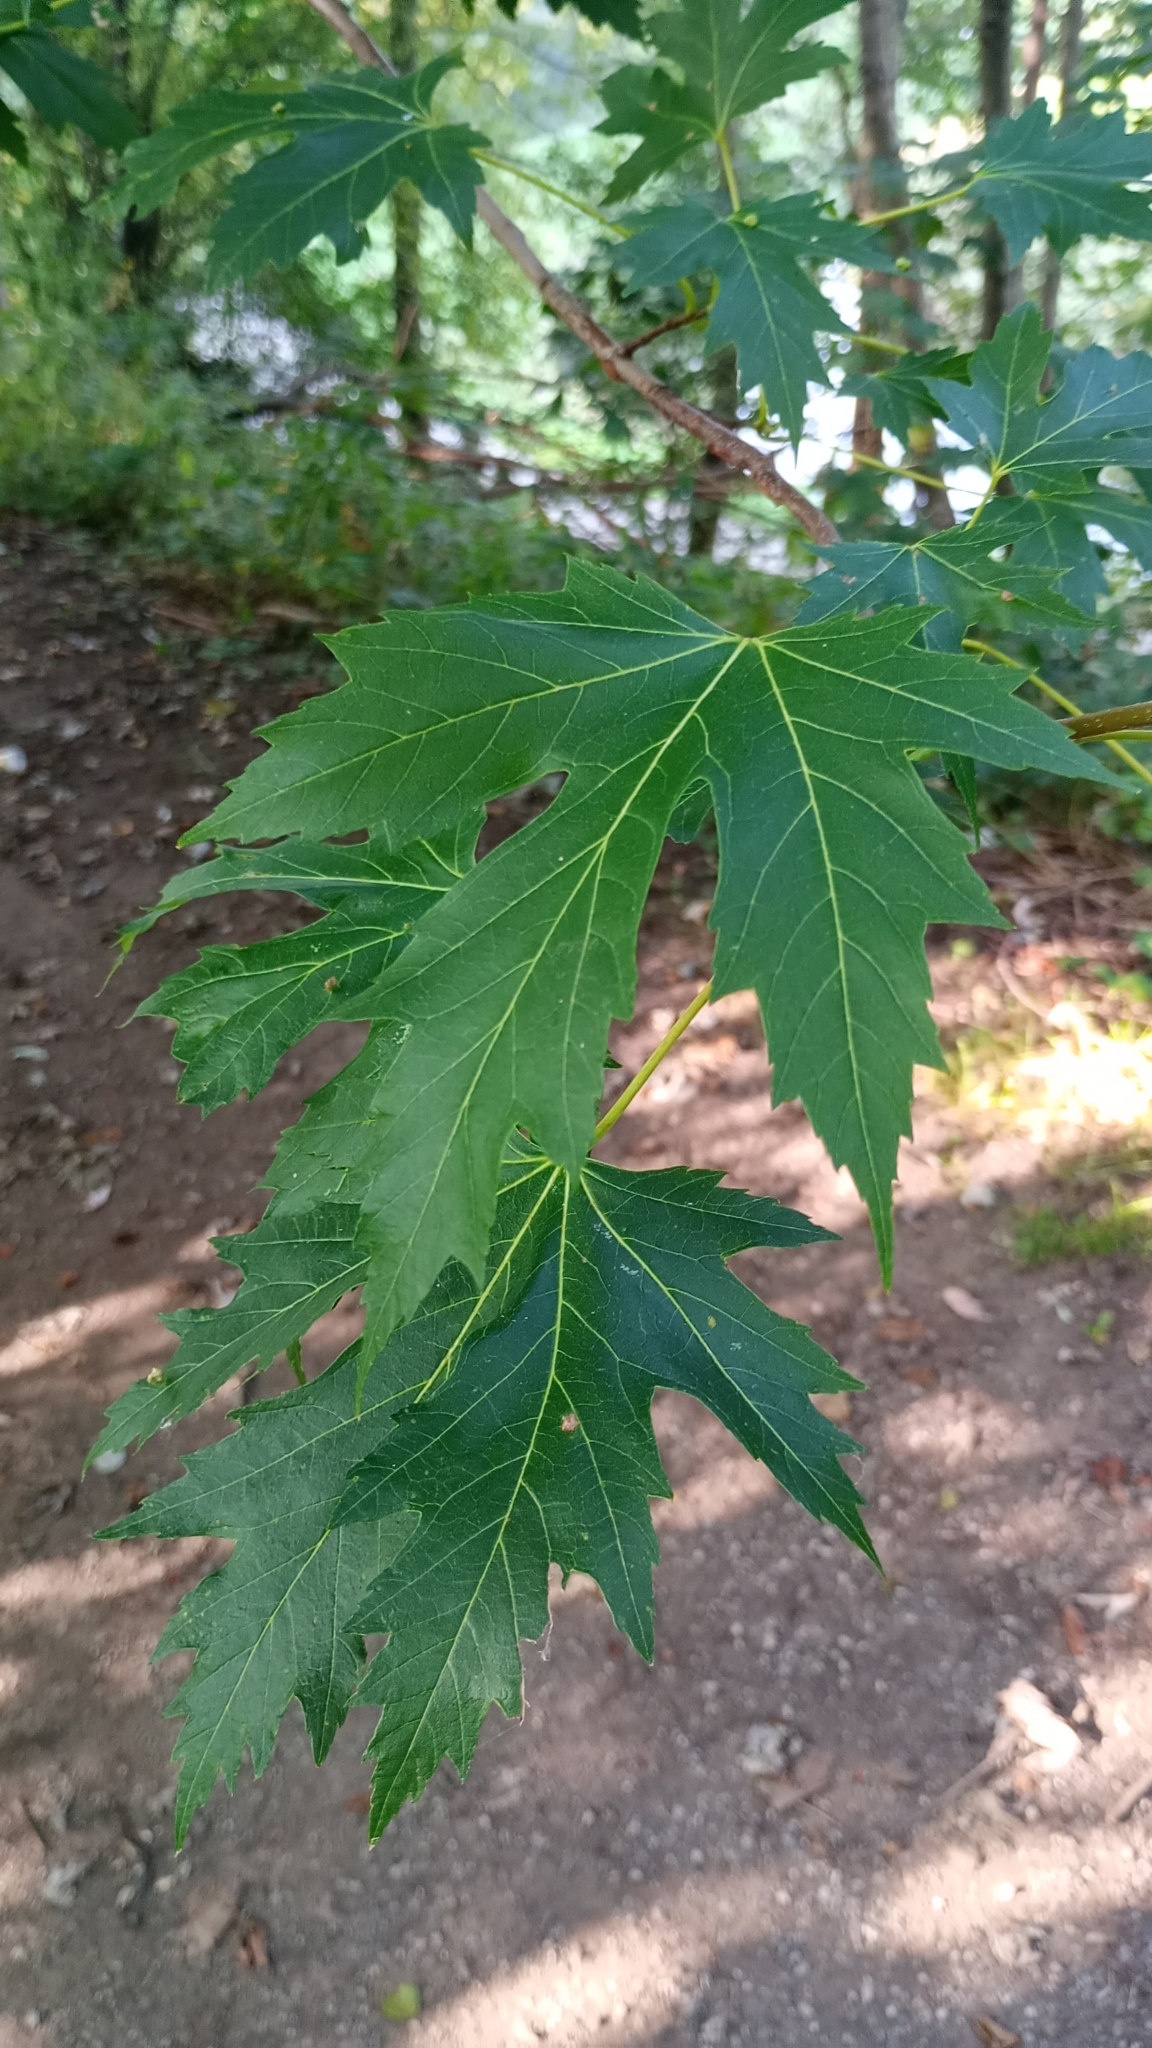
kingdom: Plantae
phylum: Tracheophyta
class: Magnoliopsida
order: Sapindales
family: Sapindaceae
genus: Acer
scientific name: Acer saccharinum
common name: Silver maple
